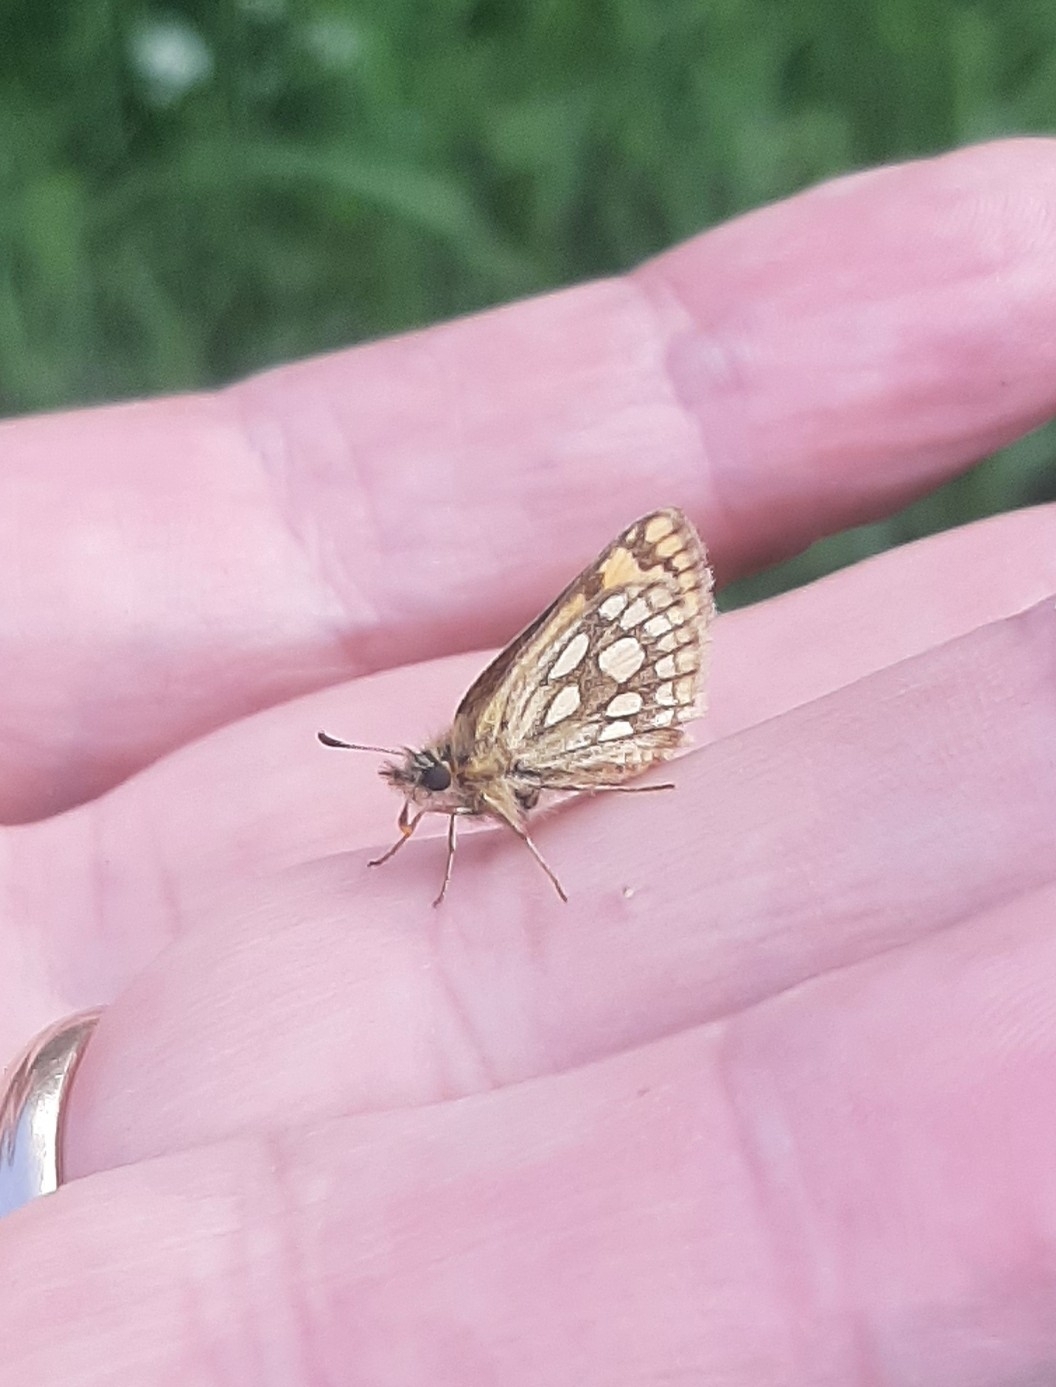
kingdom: Animalia
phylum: Arthropoda
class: Insecta
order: Lepidoptera
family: Hesperiidae
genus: Carterocephalus
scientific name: Carterocephalus silvicola
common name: Northern chequered skipper
